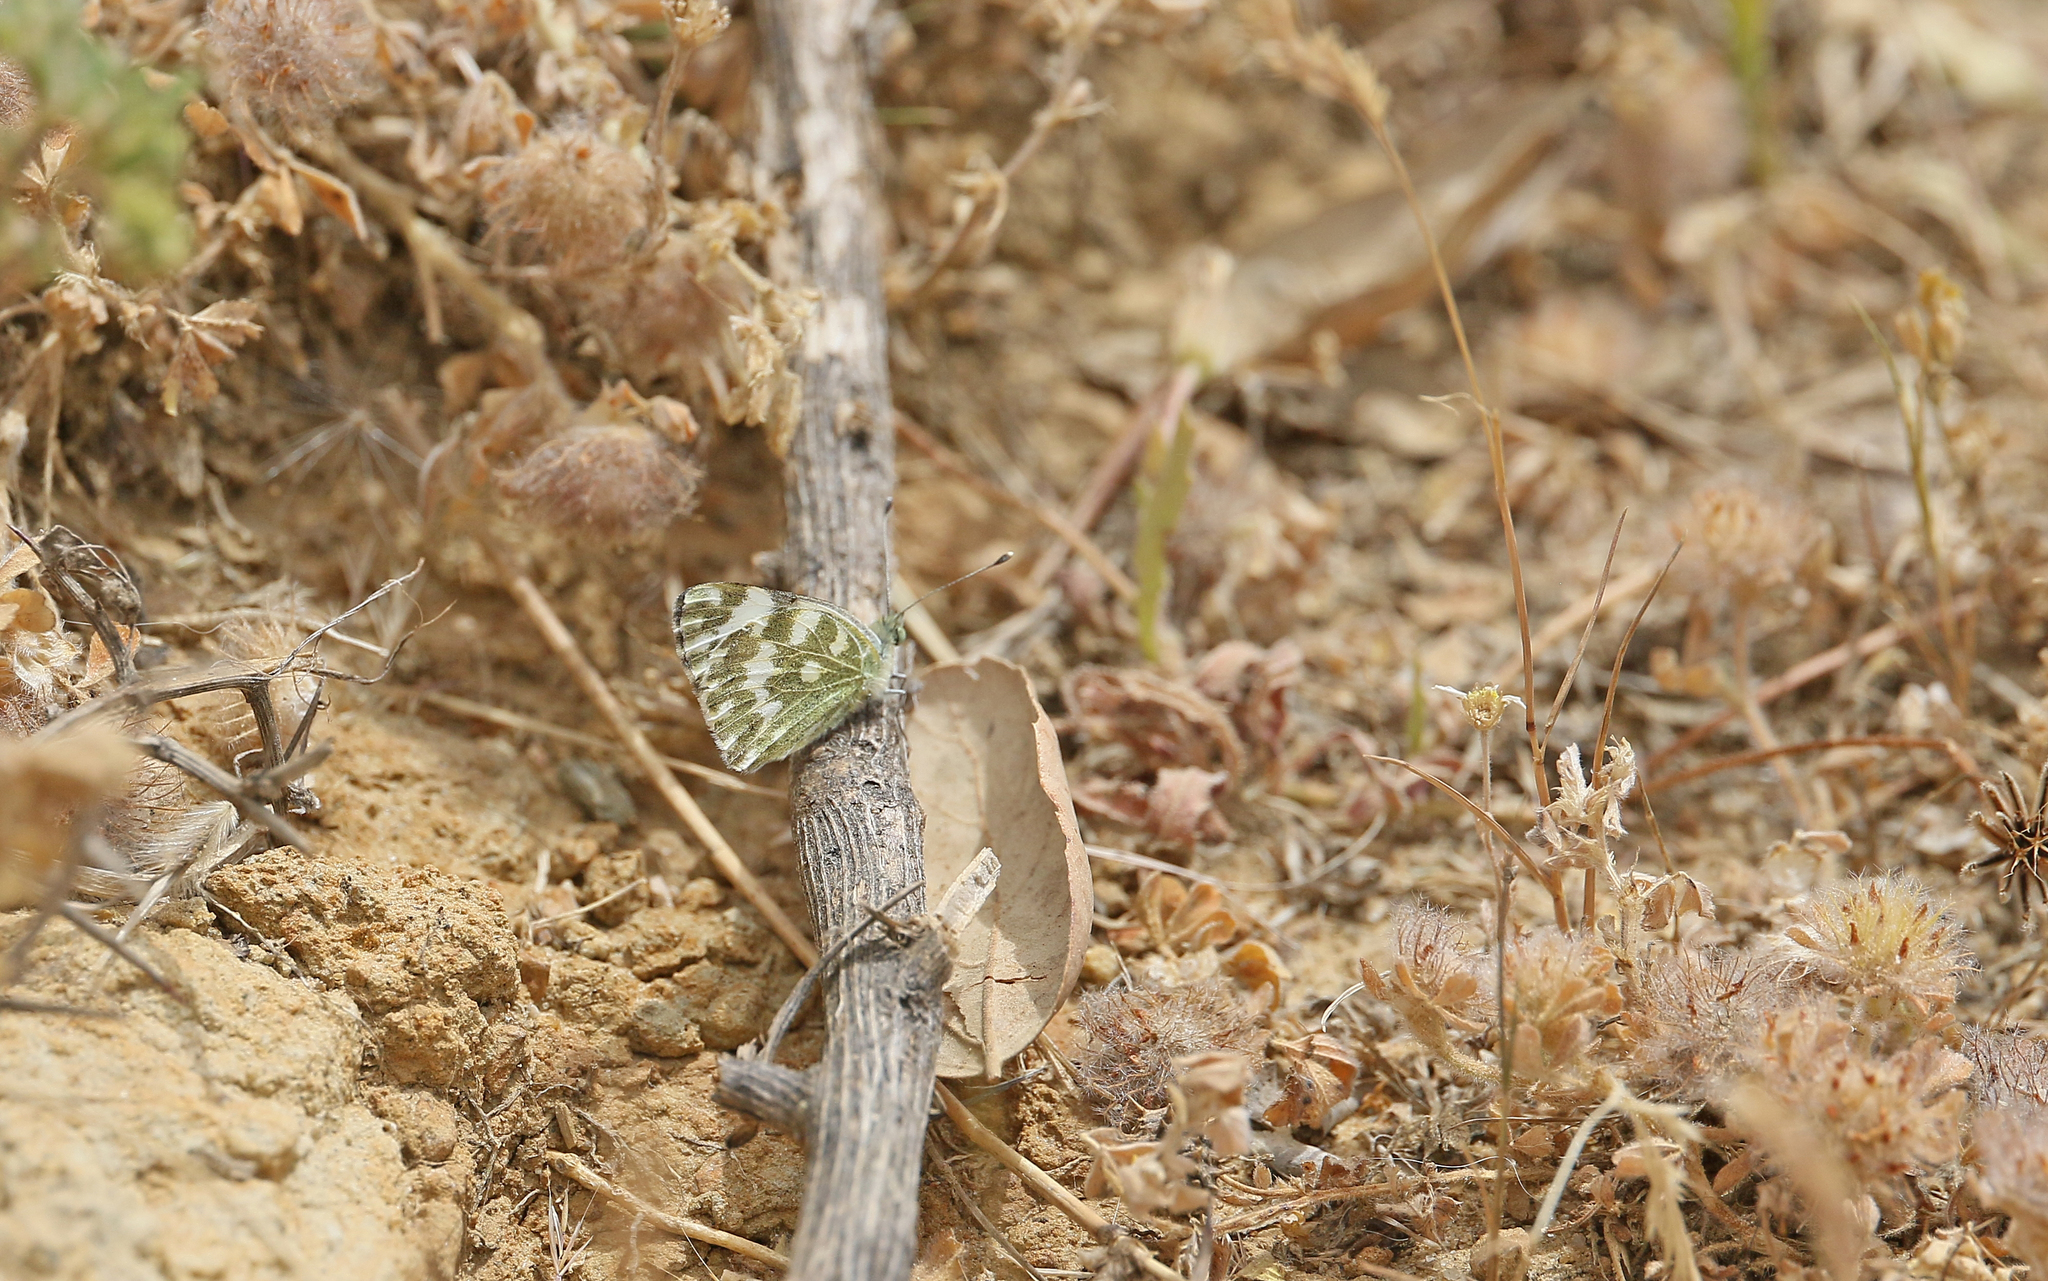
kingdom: Animalia
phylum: Arthropoda
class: Insecta
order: Lepidoptera
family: Pieridae
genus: Pontia
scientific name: Pontia daplidice
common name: Bath white
